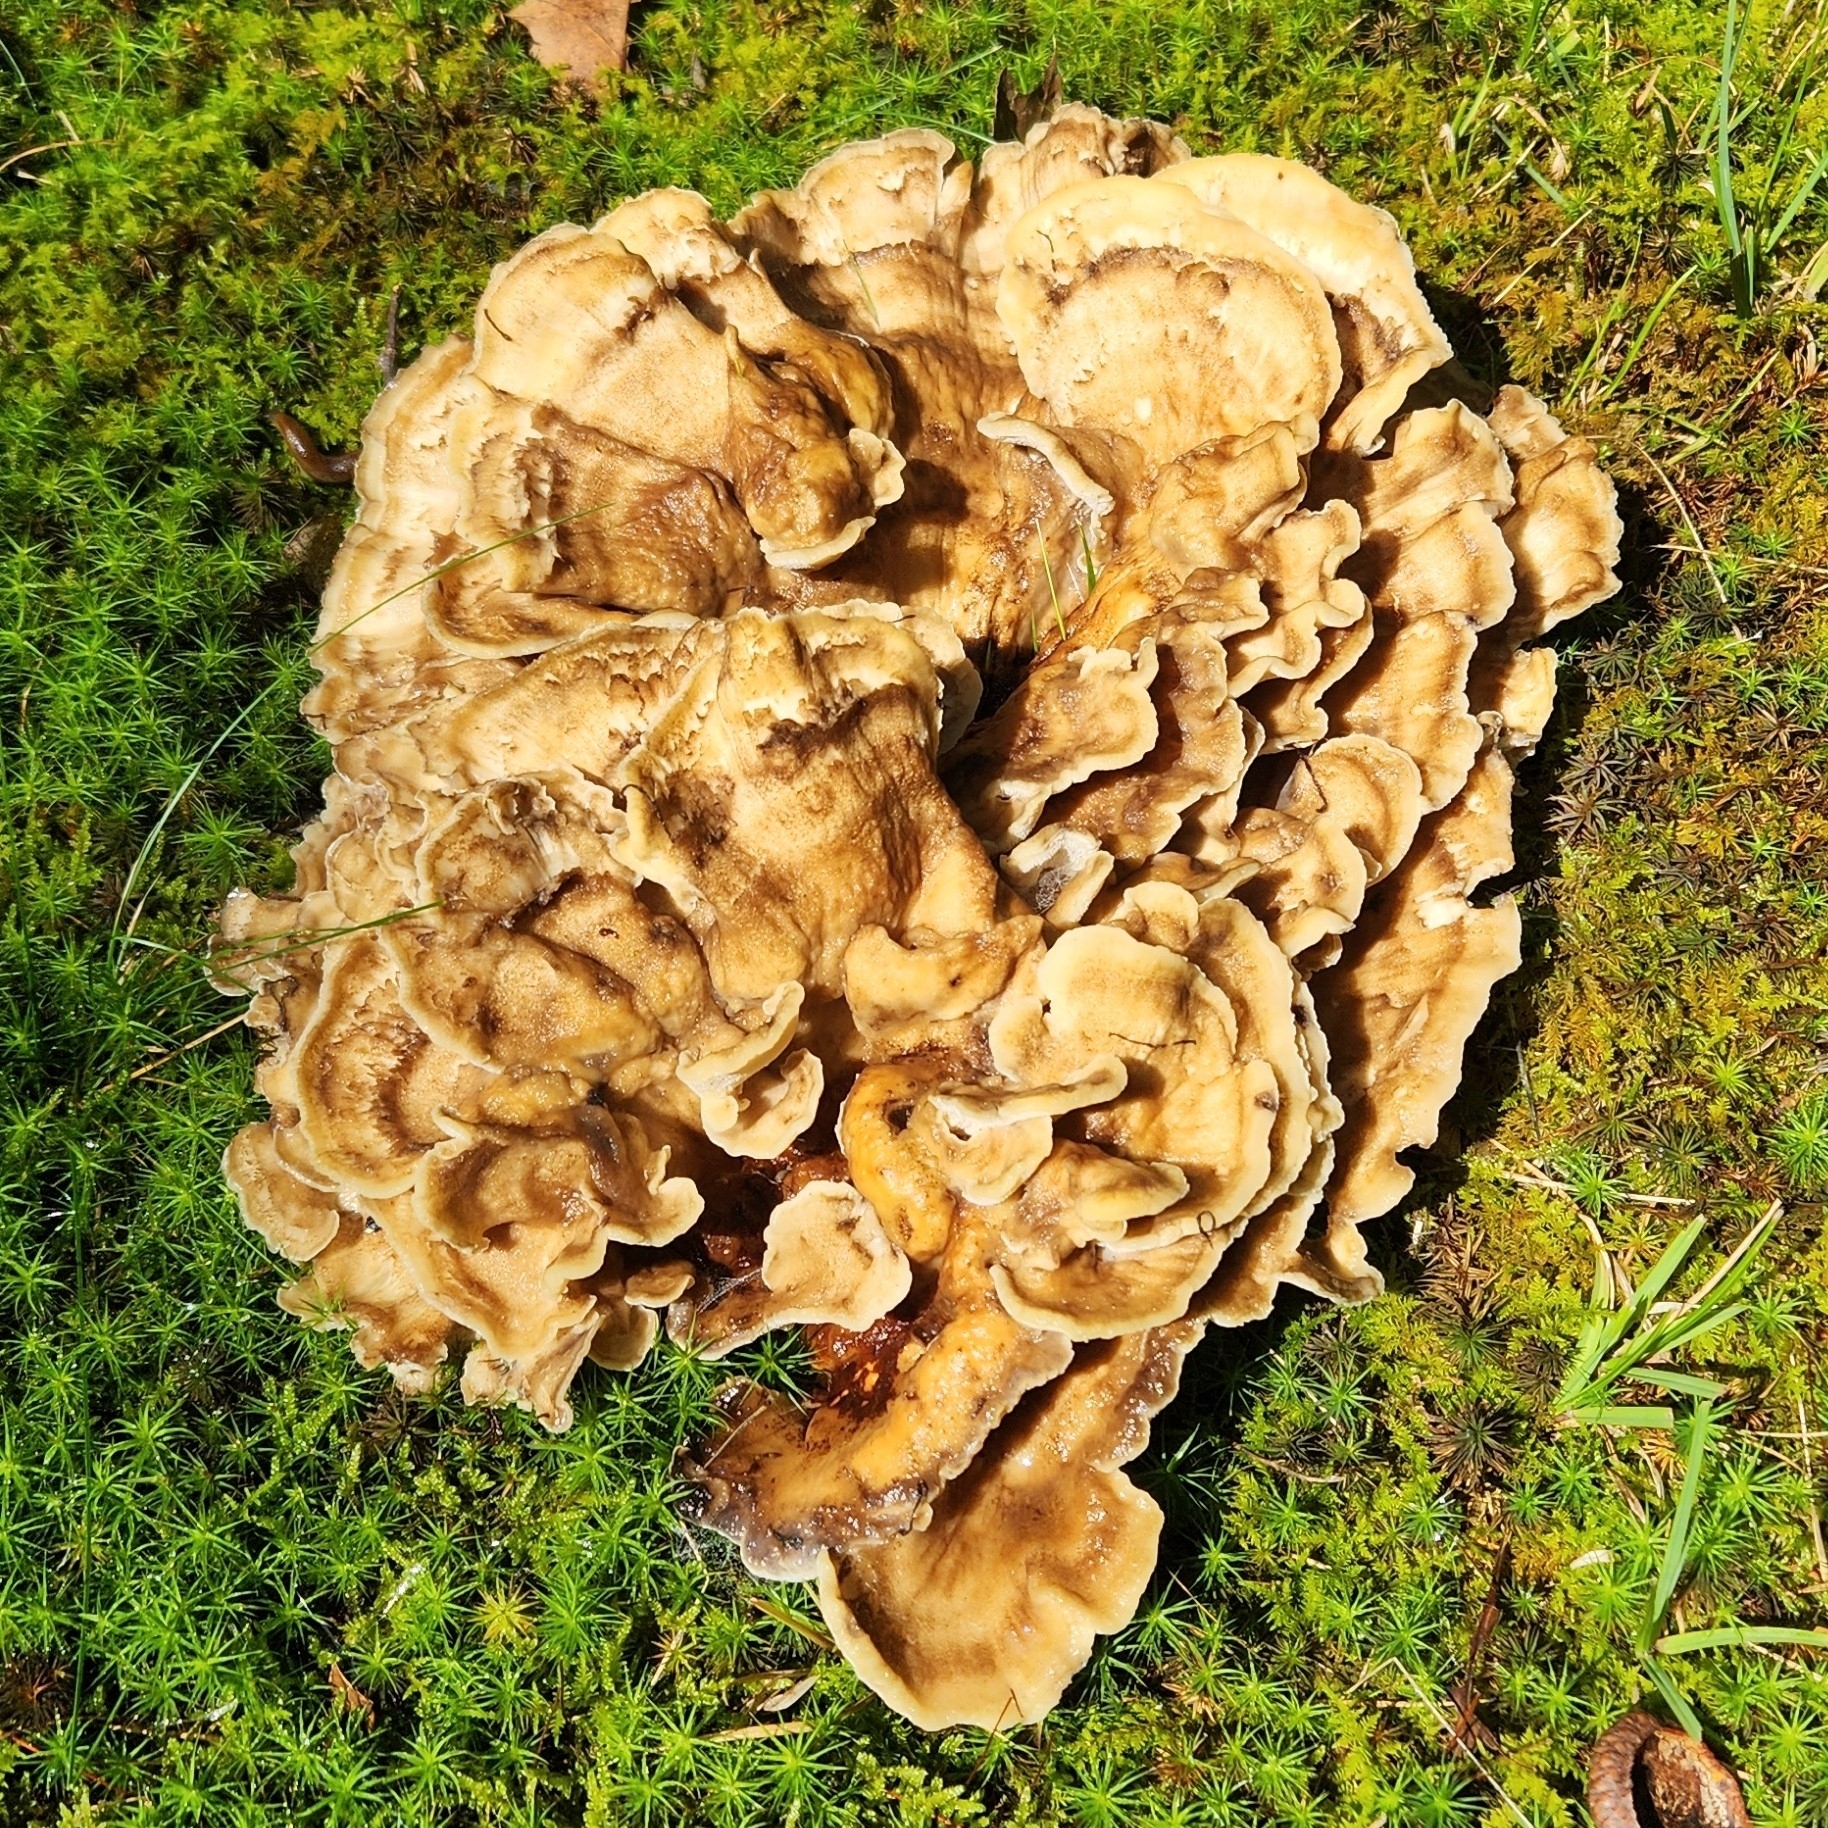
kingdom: Fungi
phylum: Basidiomycota
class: Agaricomycetes
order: Polyporales
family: Meripilaceae
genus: Meripilus
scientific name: Meripilus sumstinei
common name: Black-staining polypore
